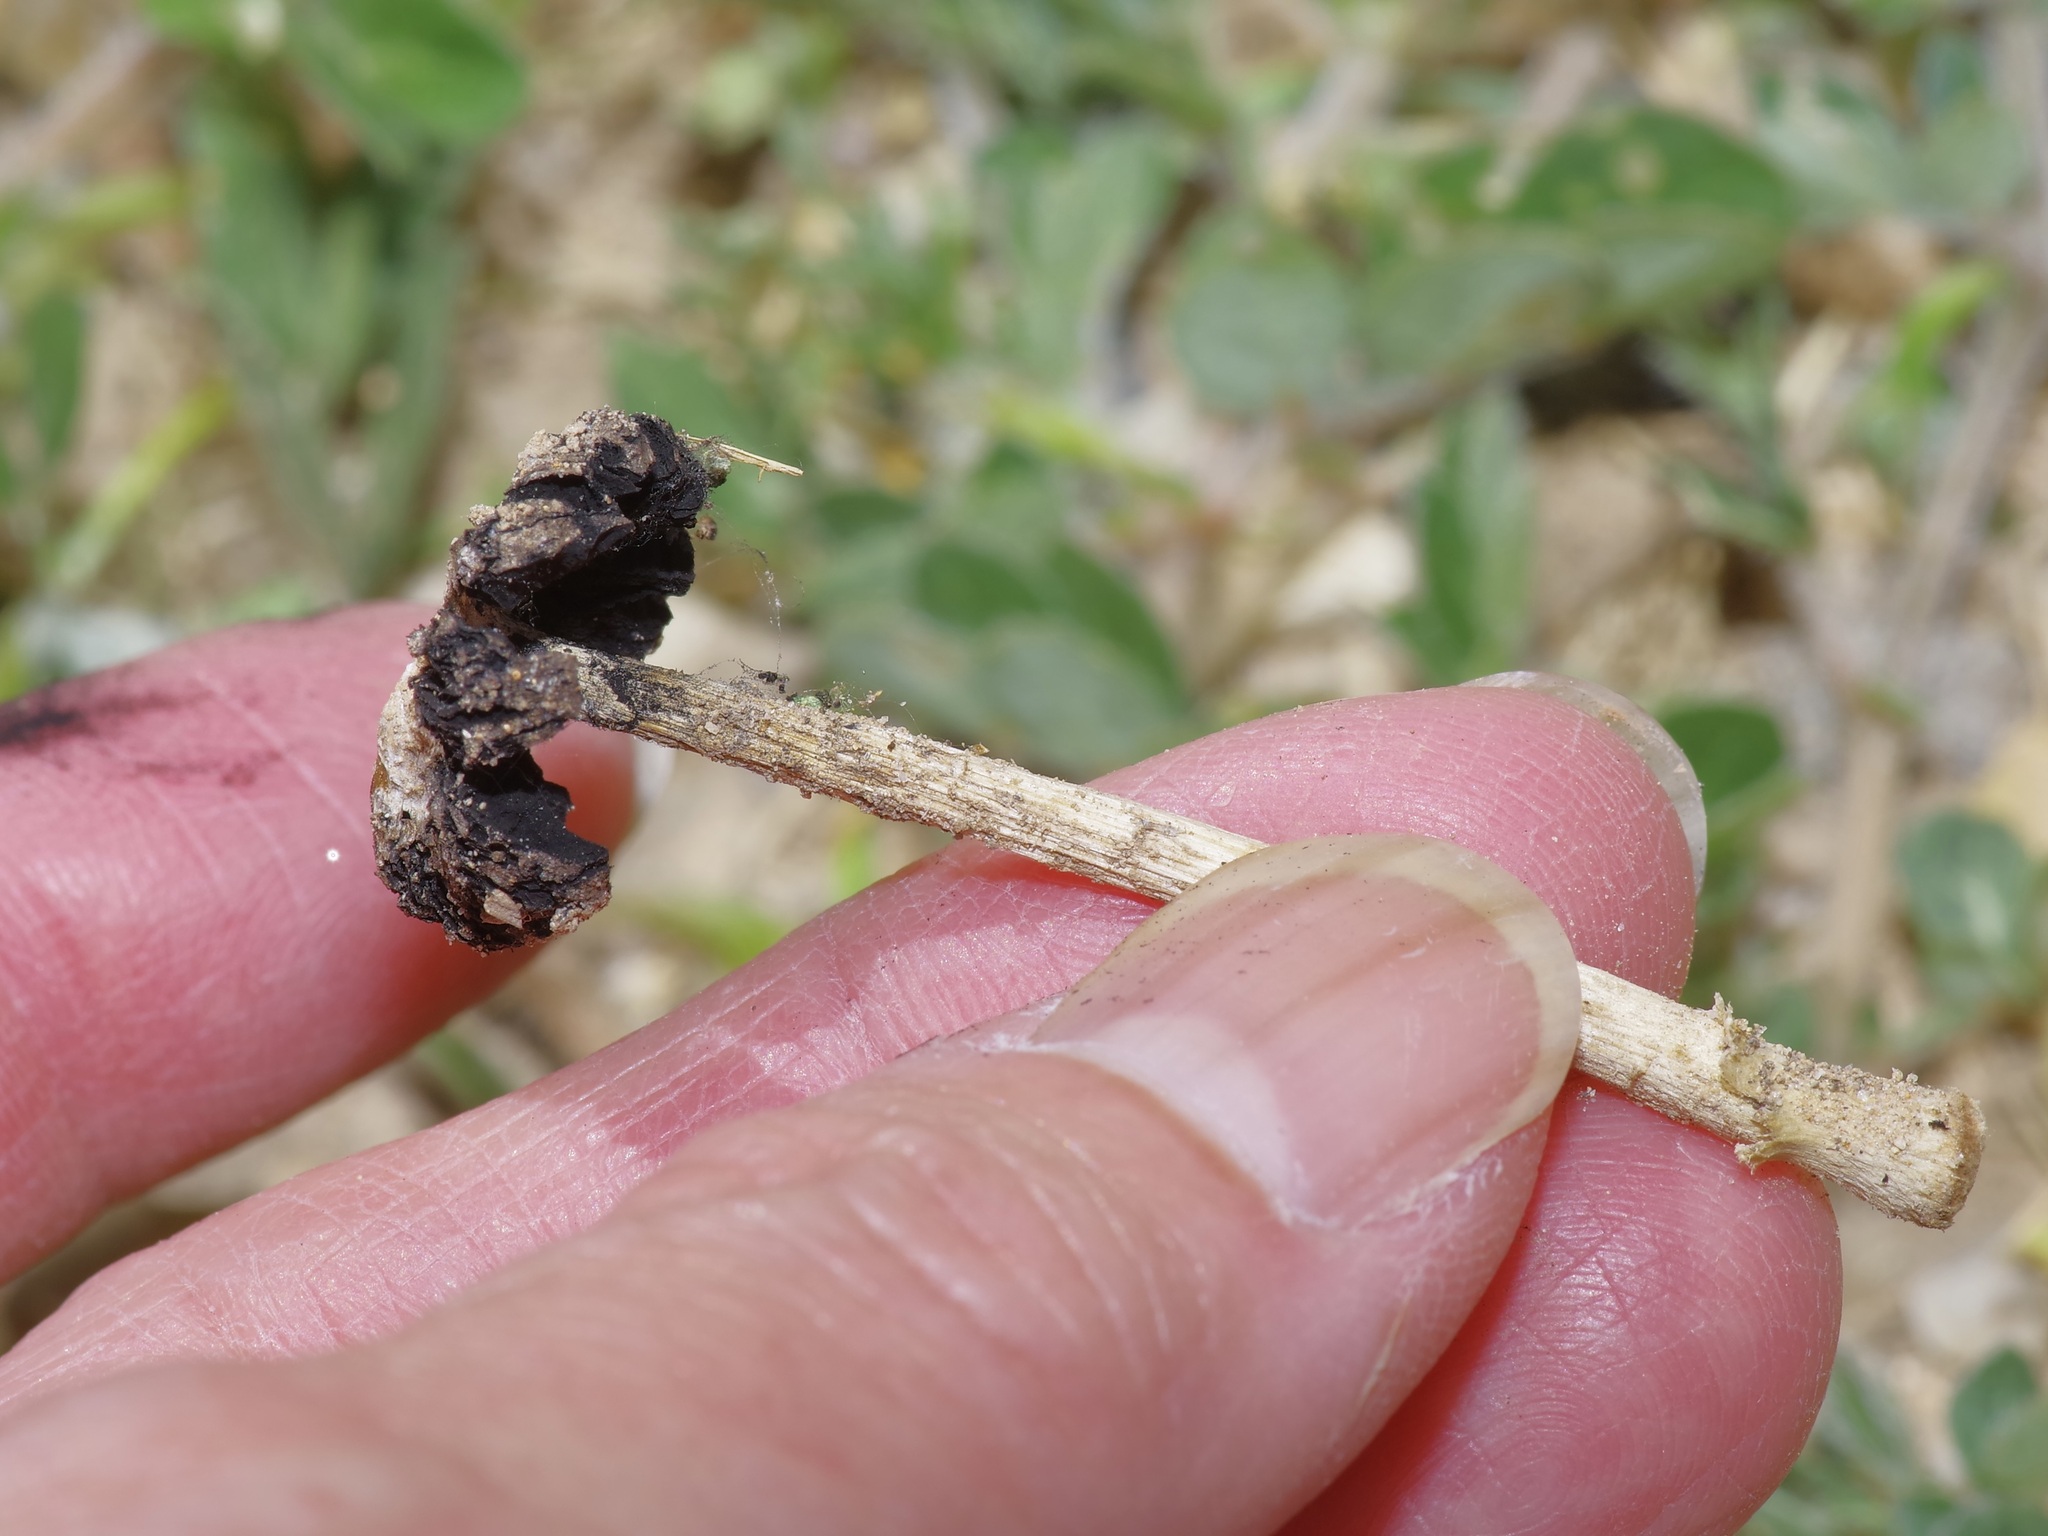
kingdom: Fungi
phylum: Basidiomycota
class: Agaricomycetes
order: Agaricales
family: Agaricaceae
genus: Montagnea
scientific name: Montagnea arenaria
